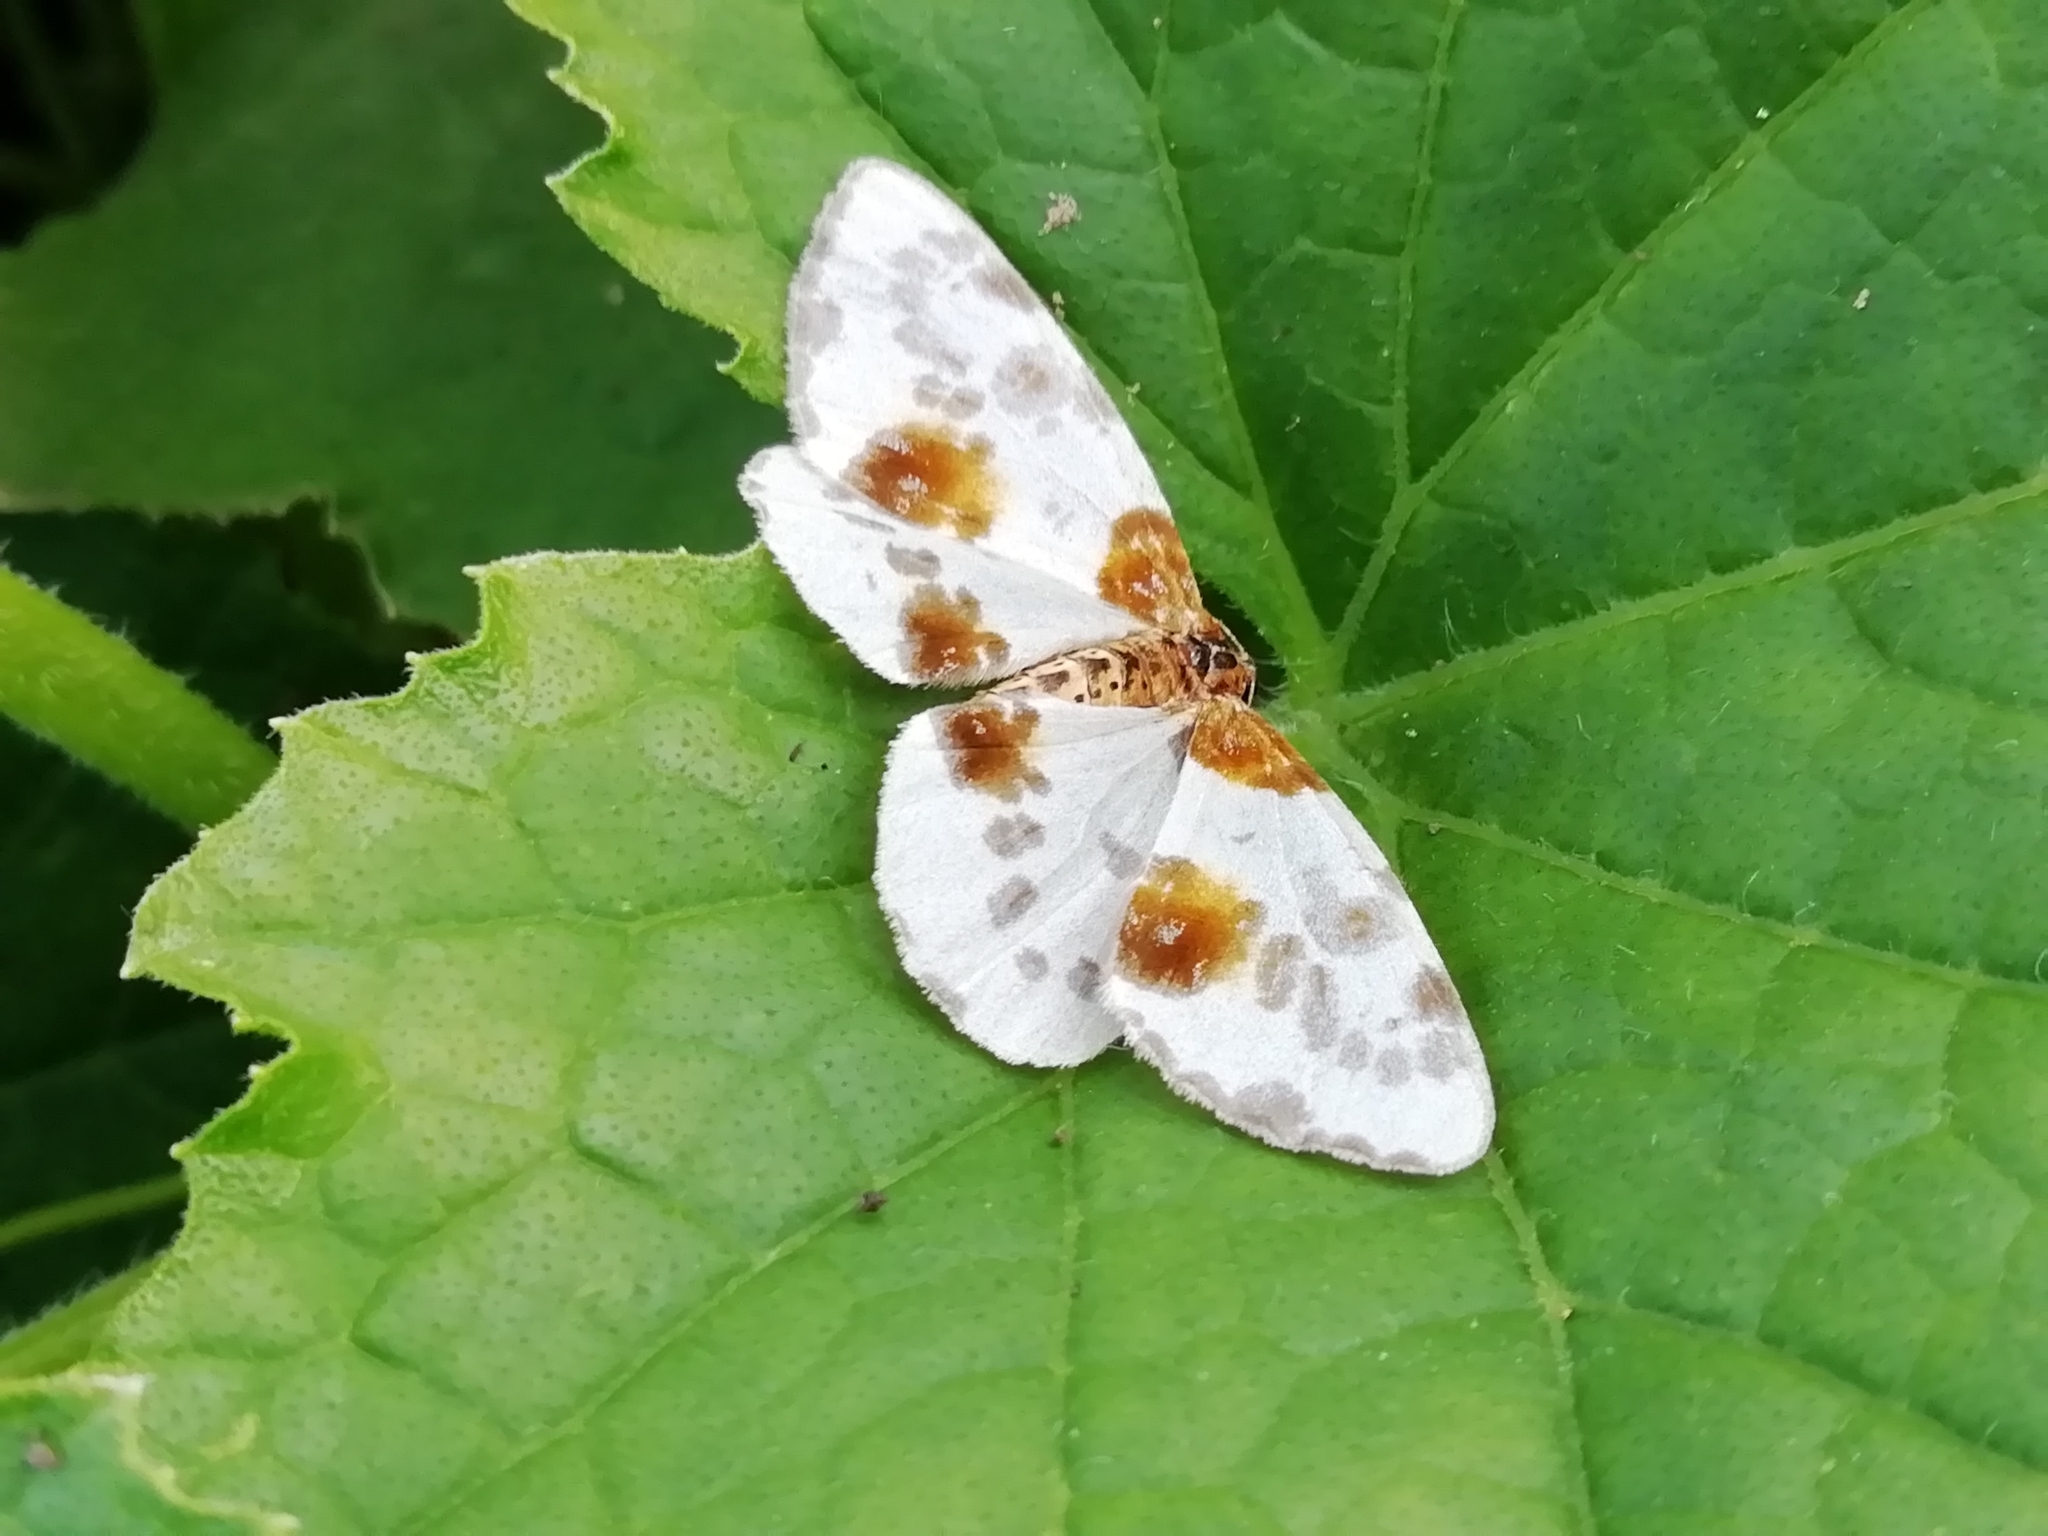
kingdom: Animalia
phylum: Arthropoda
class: Insecta
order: Lepidoptera
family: Geometridae
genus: Abraxas
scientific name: Abraxas sylvata
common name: Clouded magpie
